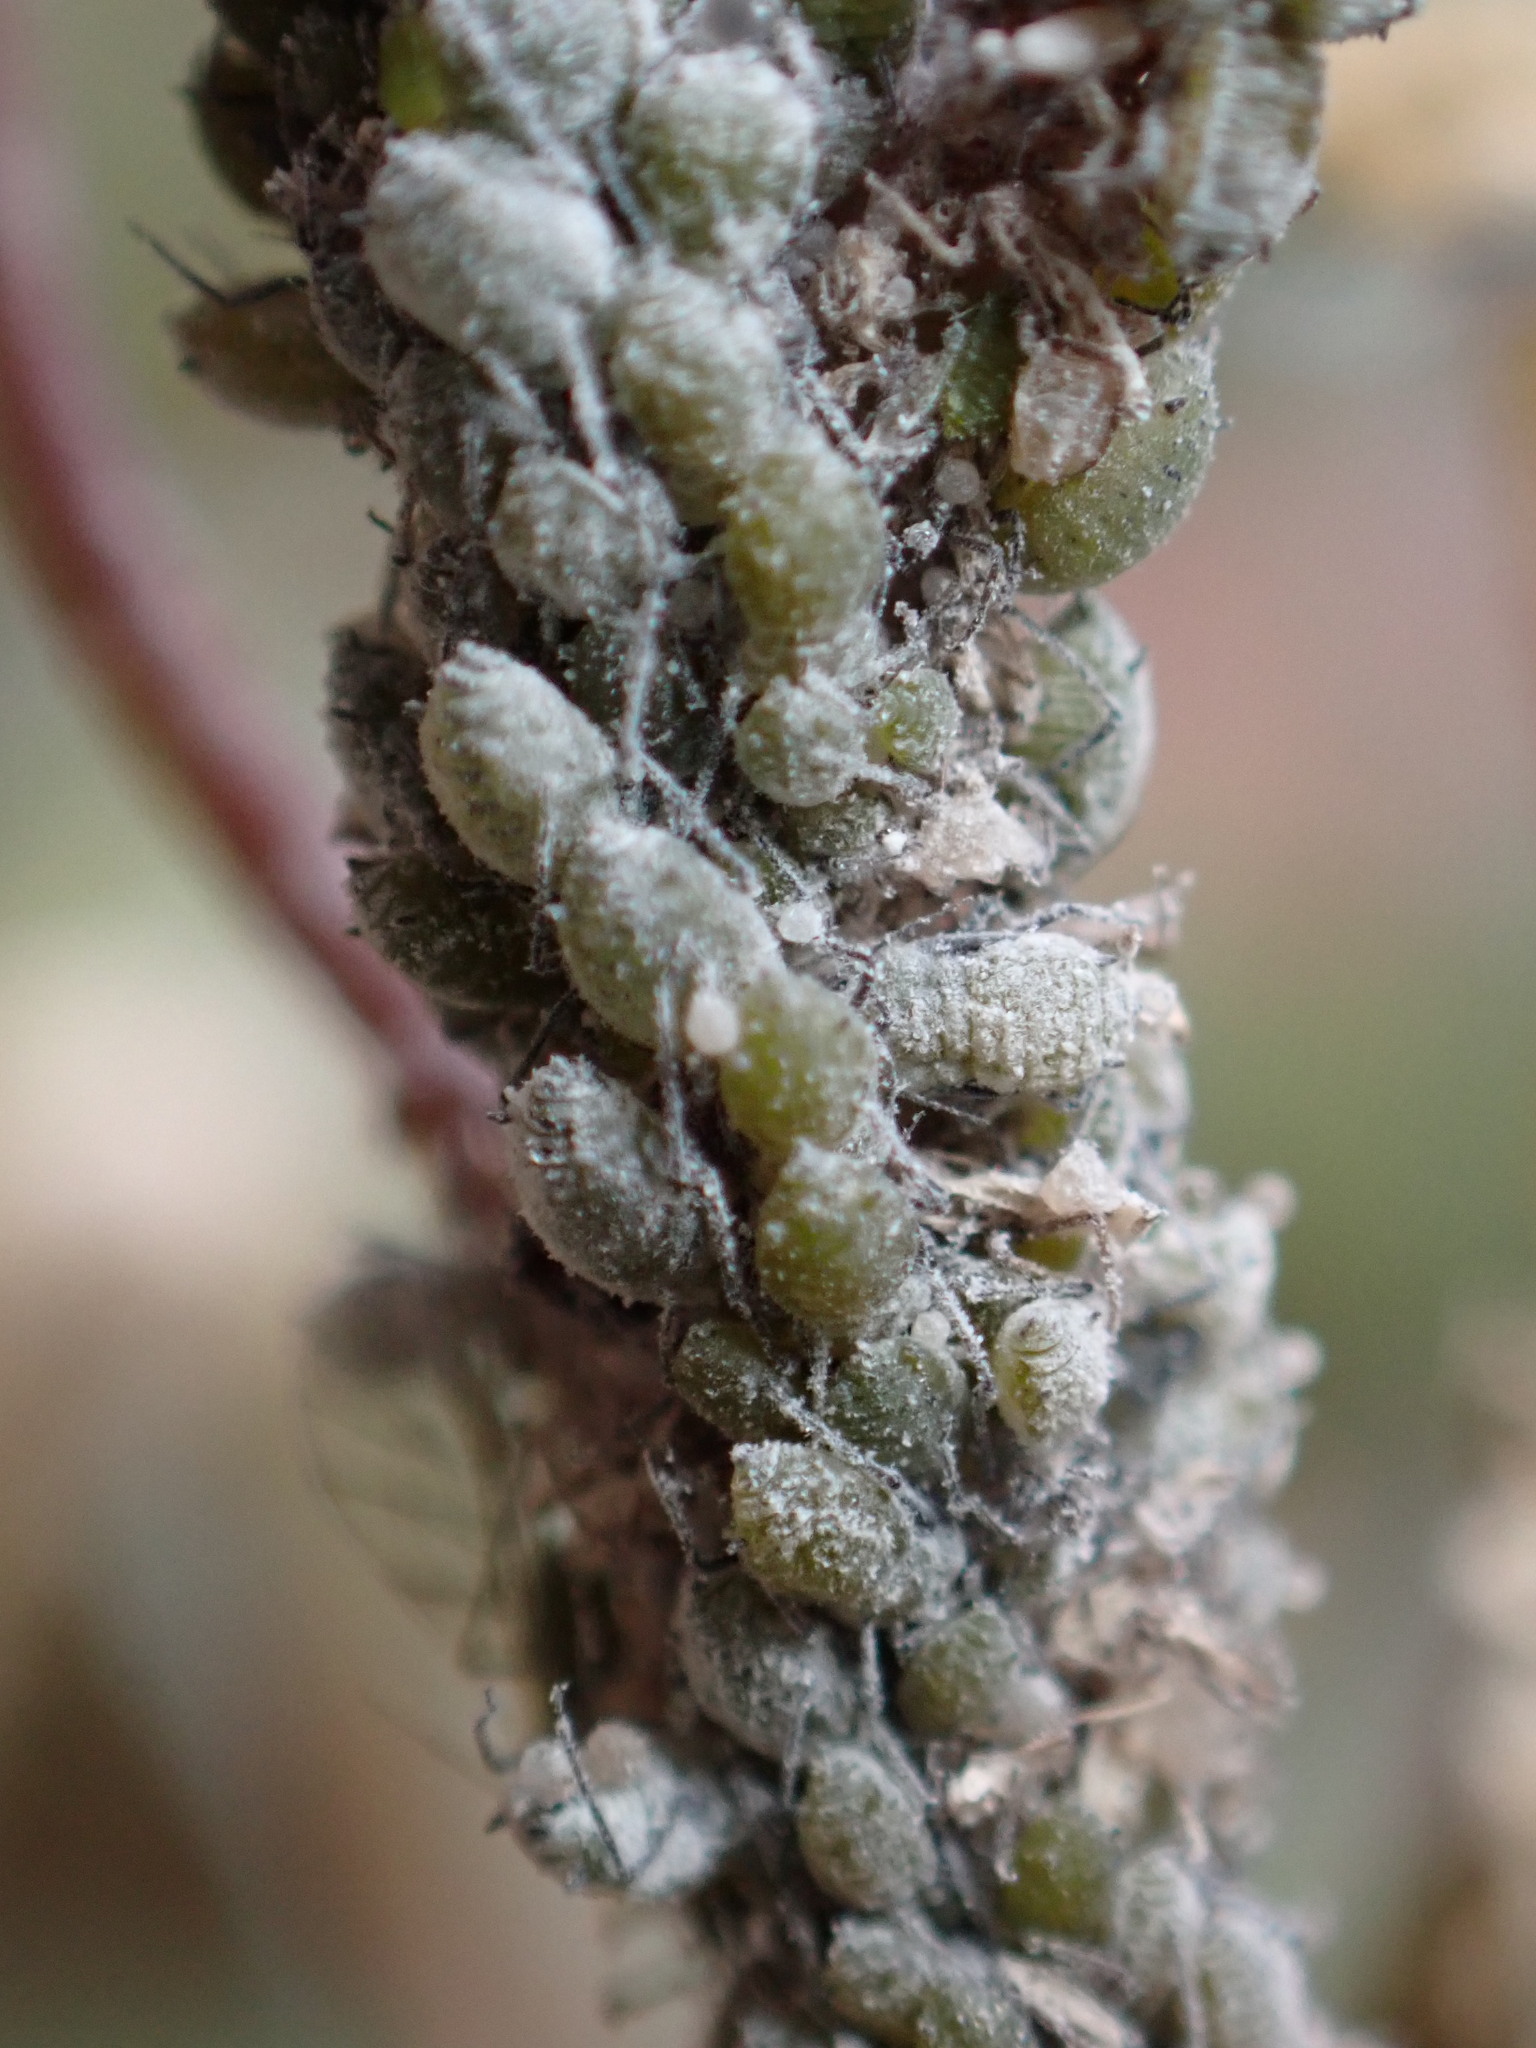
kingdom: Animalia
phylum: Arthropoda
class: Insecta
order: Hemiptera
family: Aphididae
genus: Brevicoryne
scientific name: Brevicoryne brassicae
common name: Cabbage aphid
